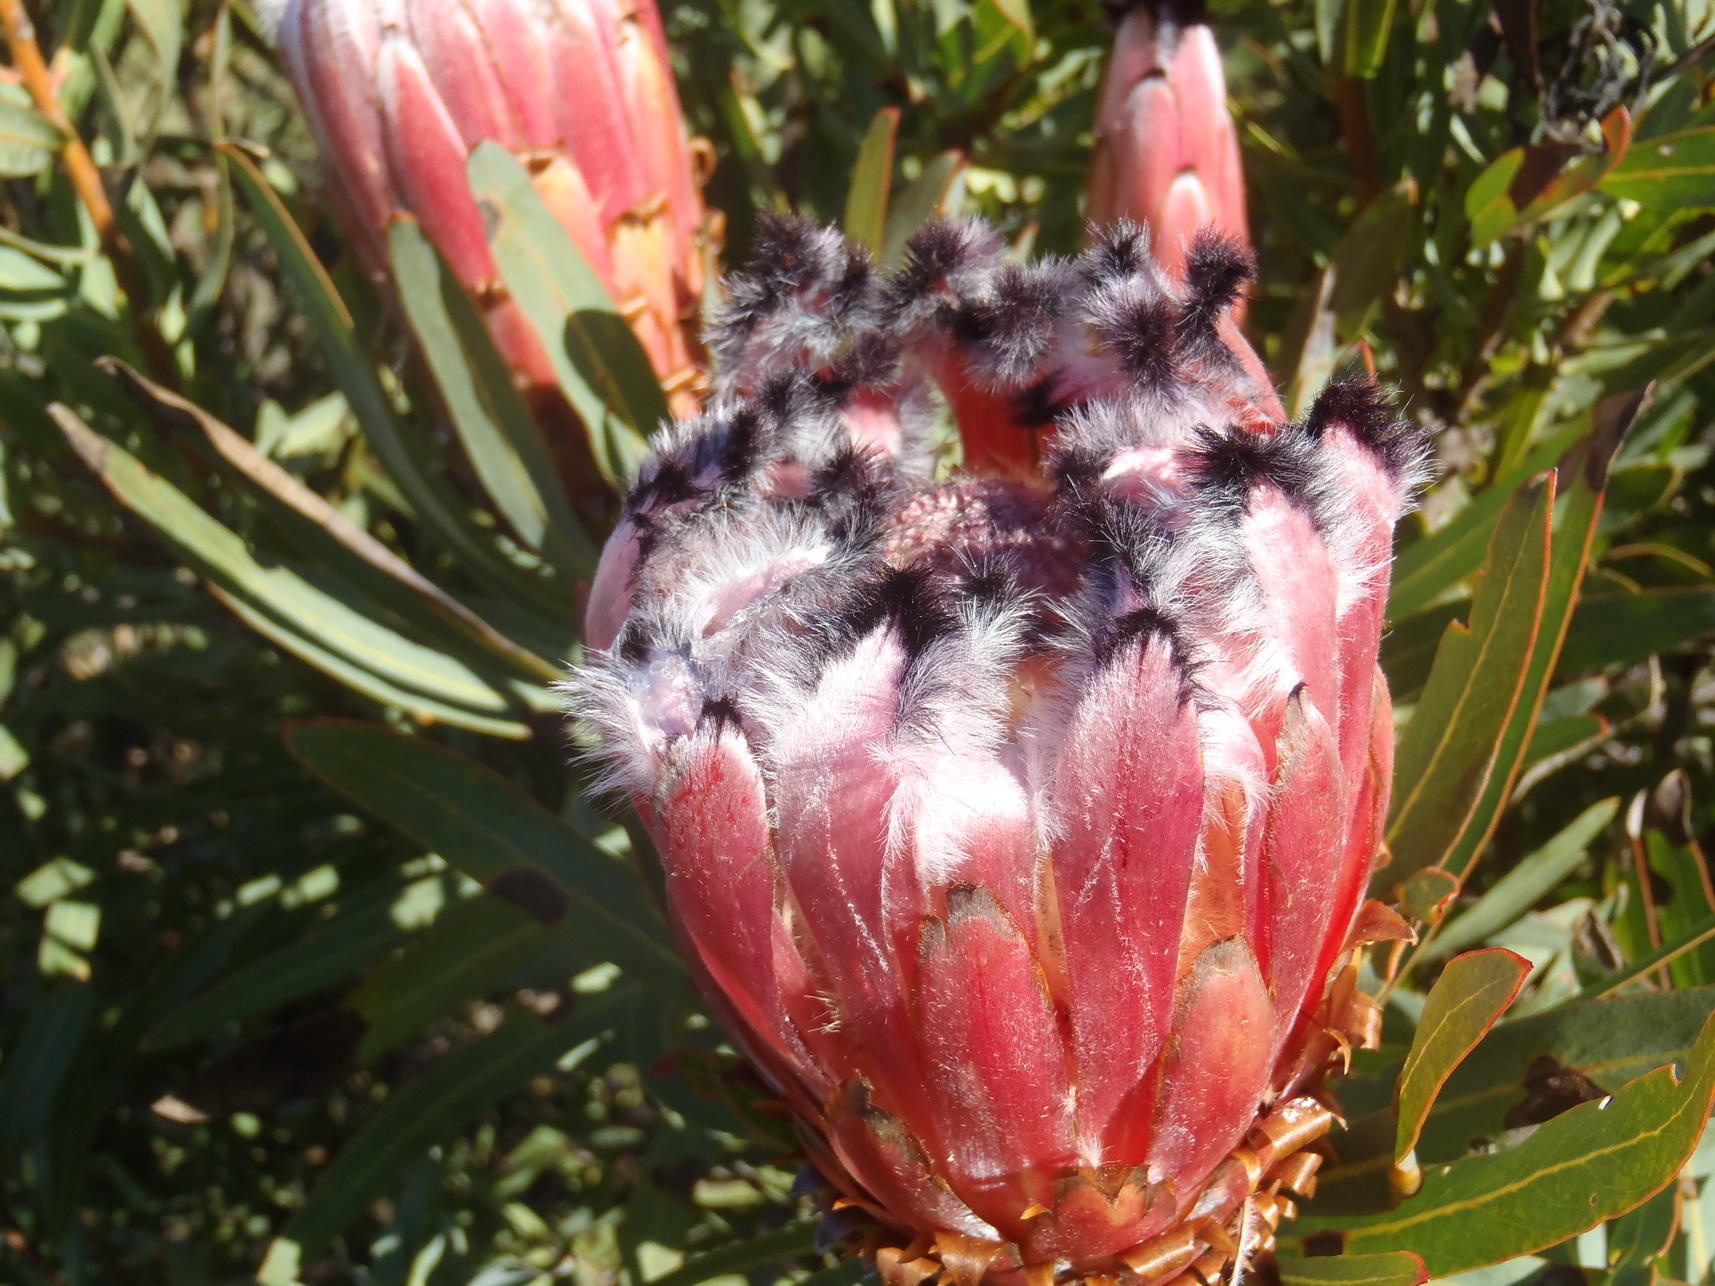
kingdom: Plantae
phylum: Tracheophyta
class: Magnoliopsida
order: Proteales
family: Proteaceae
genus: Protea
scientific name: Protea neriifolia
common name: Blue sugarbush
